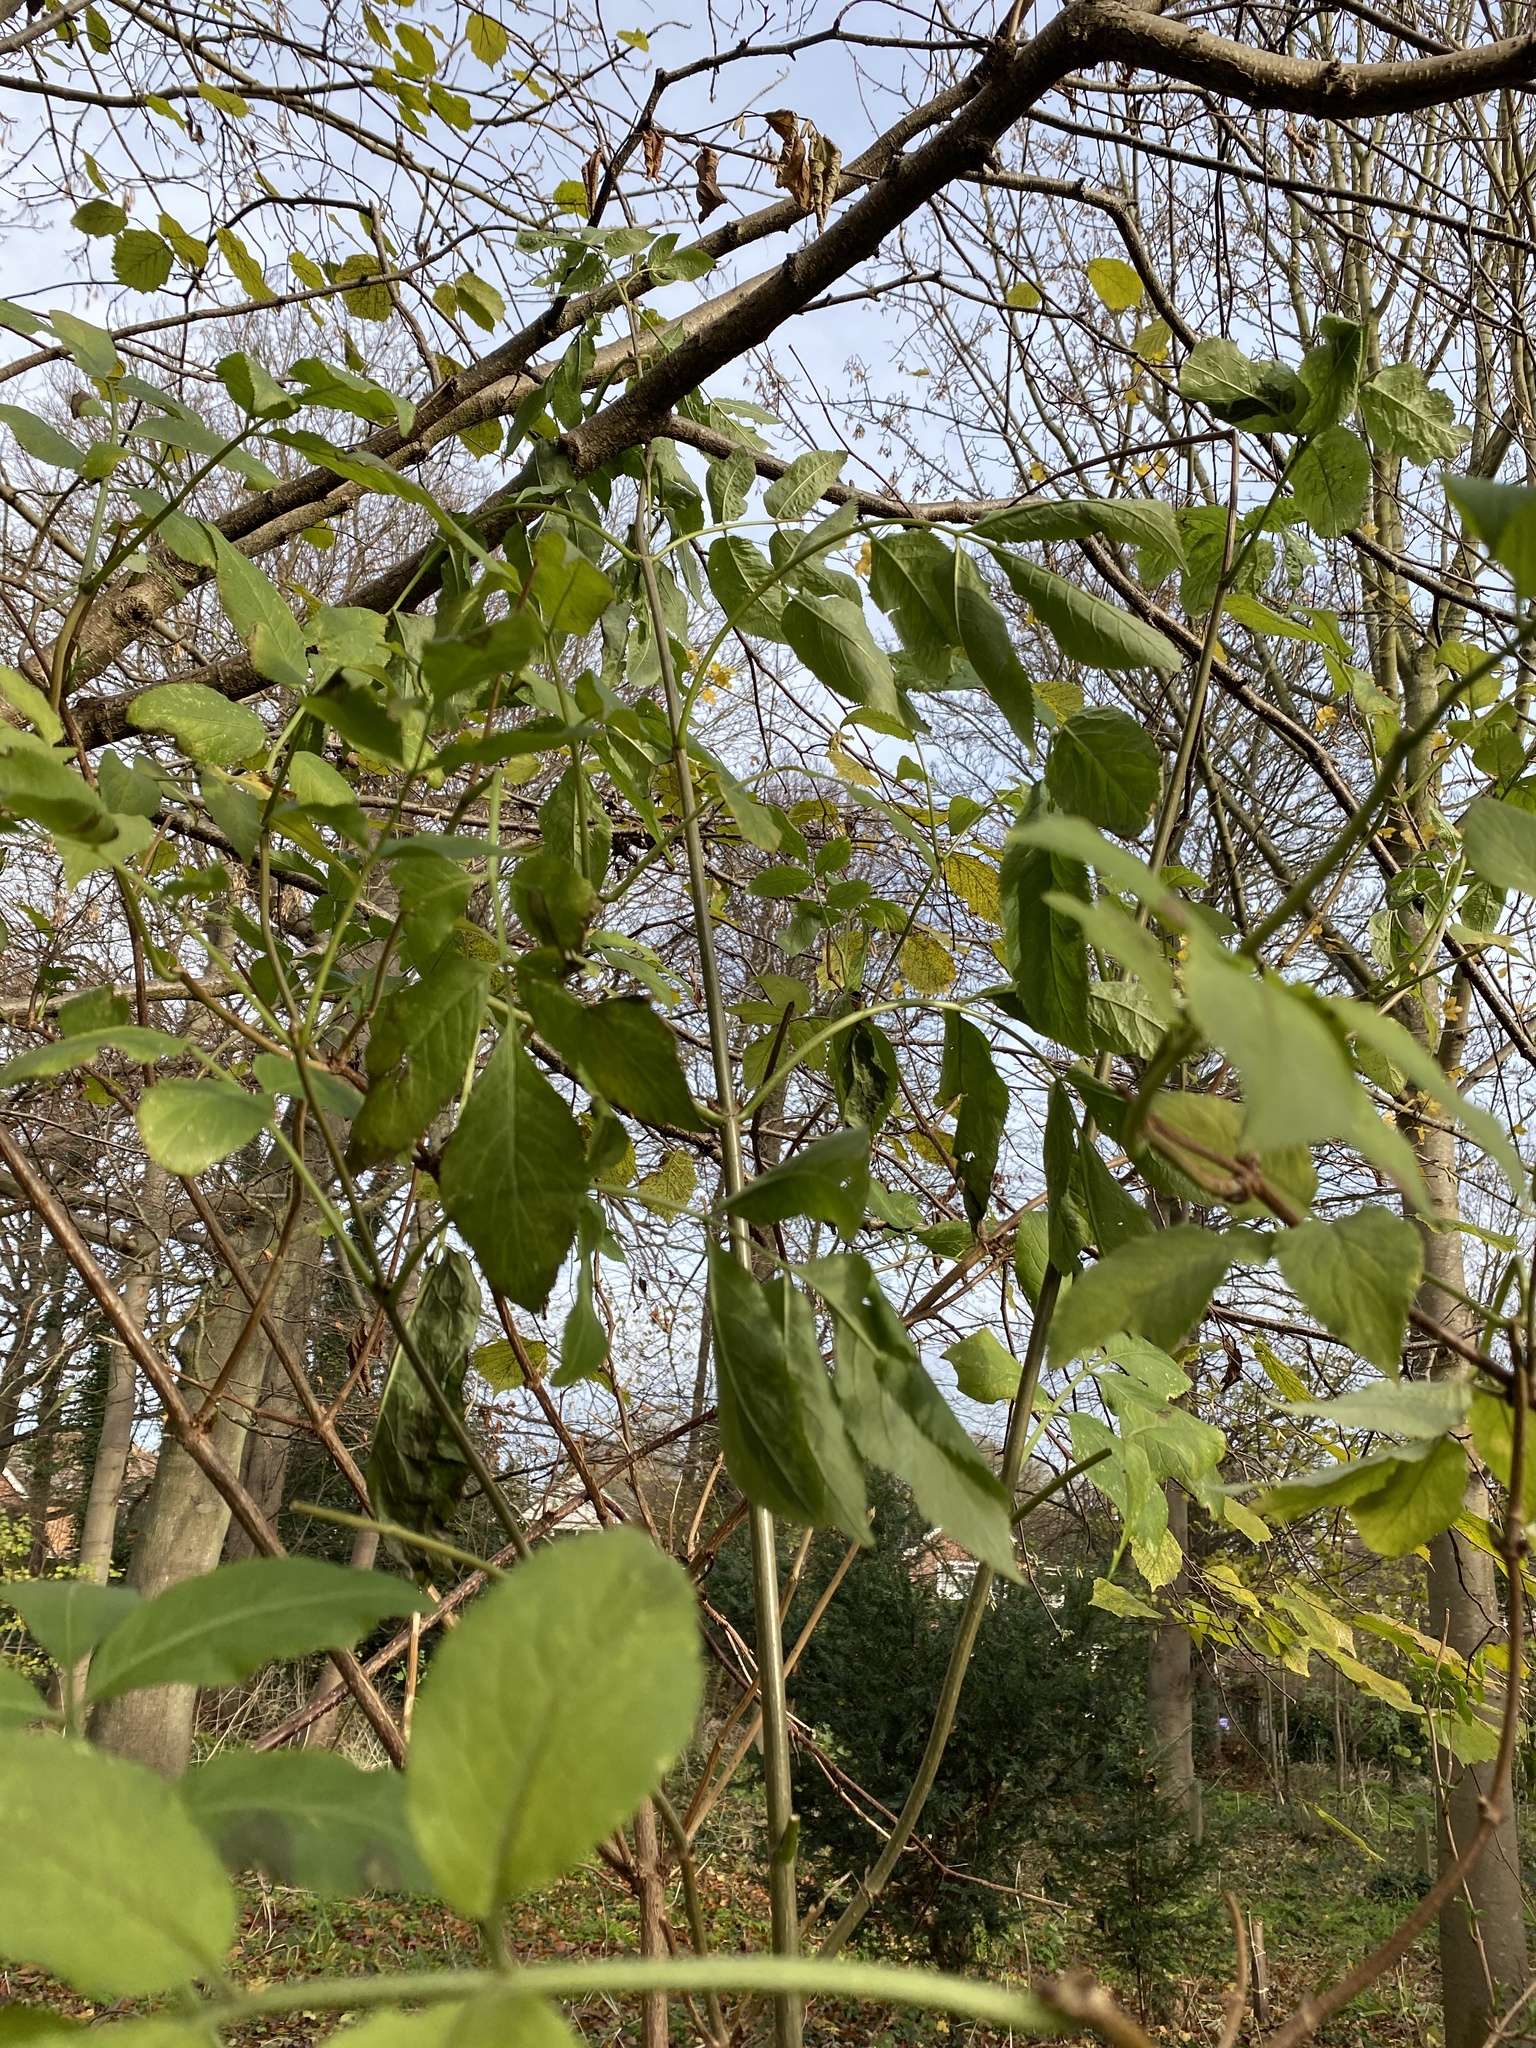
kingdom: Plantae
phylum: Tracheophyta
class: Magnoliopsida
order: Dipsacales
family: Viburnaceae
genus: Sambucus
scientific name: Sambucus nigra
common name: Elder
